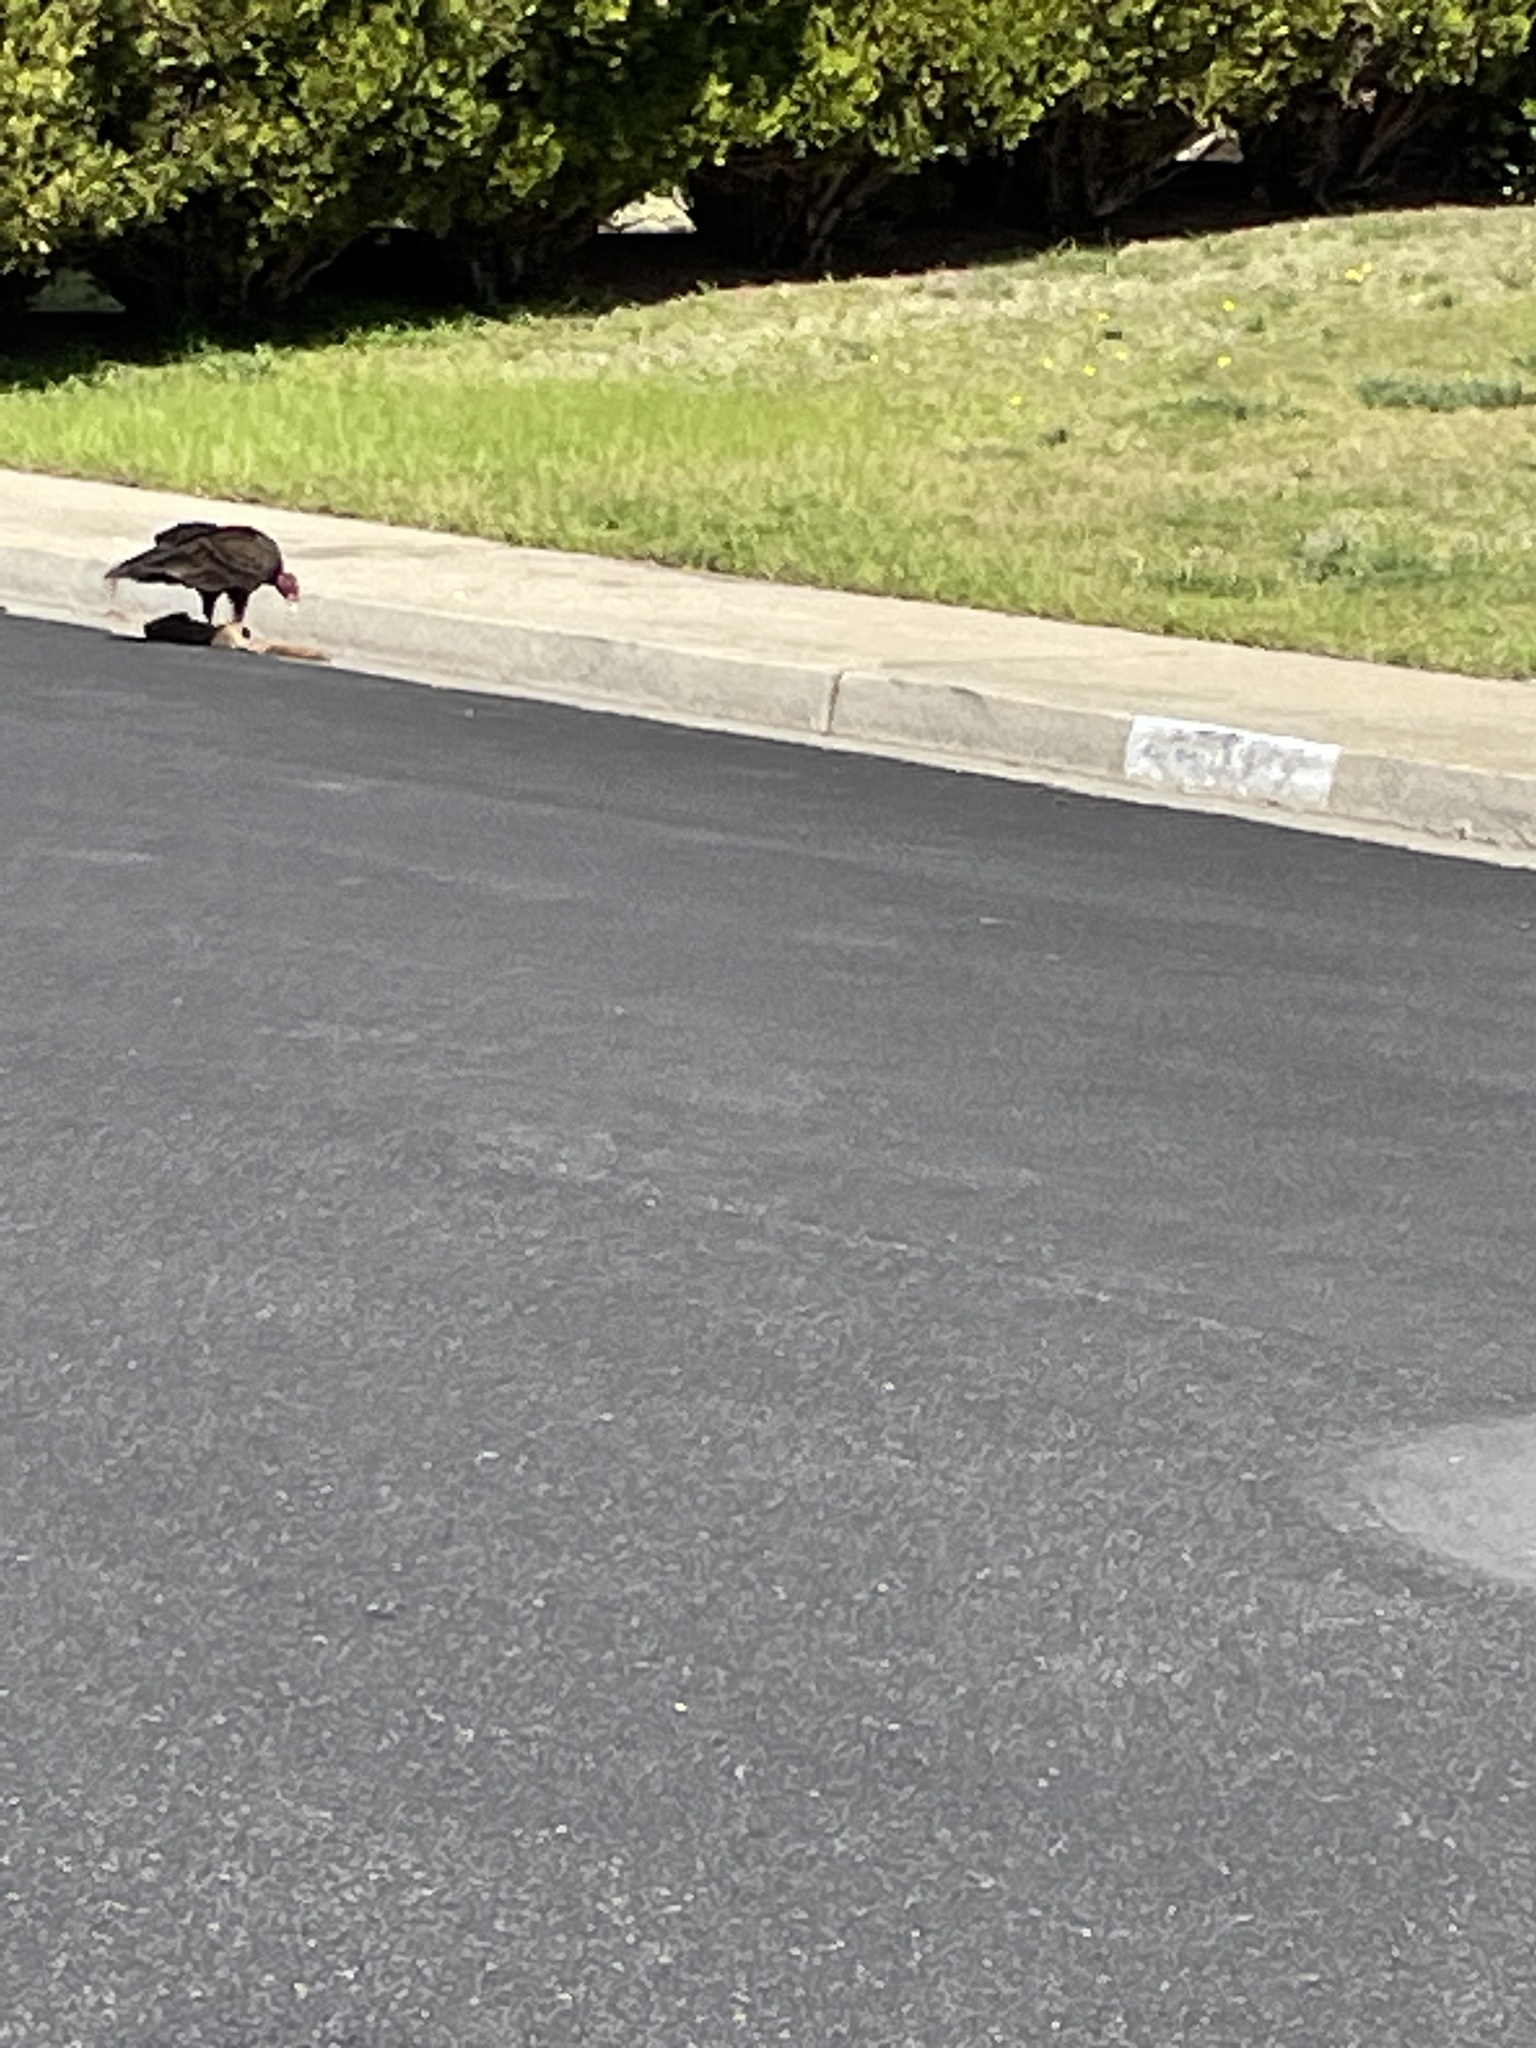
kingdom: Animalia
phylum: Chordata
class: Aves
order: Accipitriformes
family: Cathartidae
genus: Cathartes
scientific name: Cathartes aura
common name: Turkey vulture
